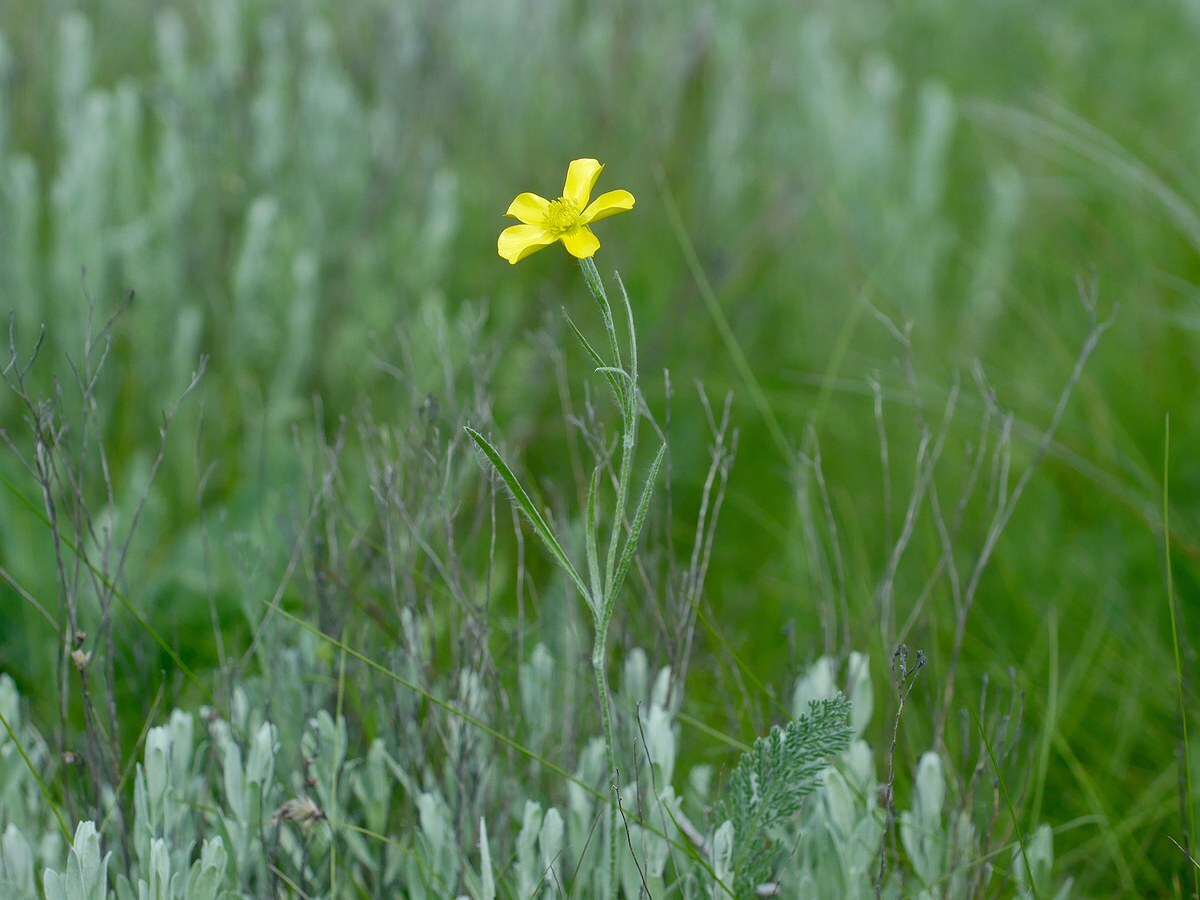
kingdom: Plantae
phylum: Tracheophyta
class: Magnoliopsida
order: Ranunculales
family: Ranunculaceae
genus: Ranunculus
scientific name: Ranunculus illyricus
